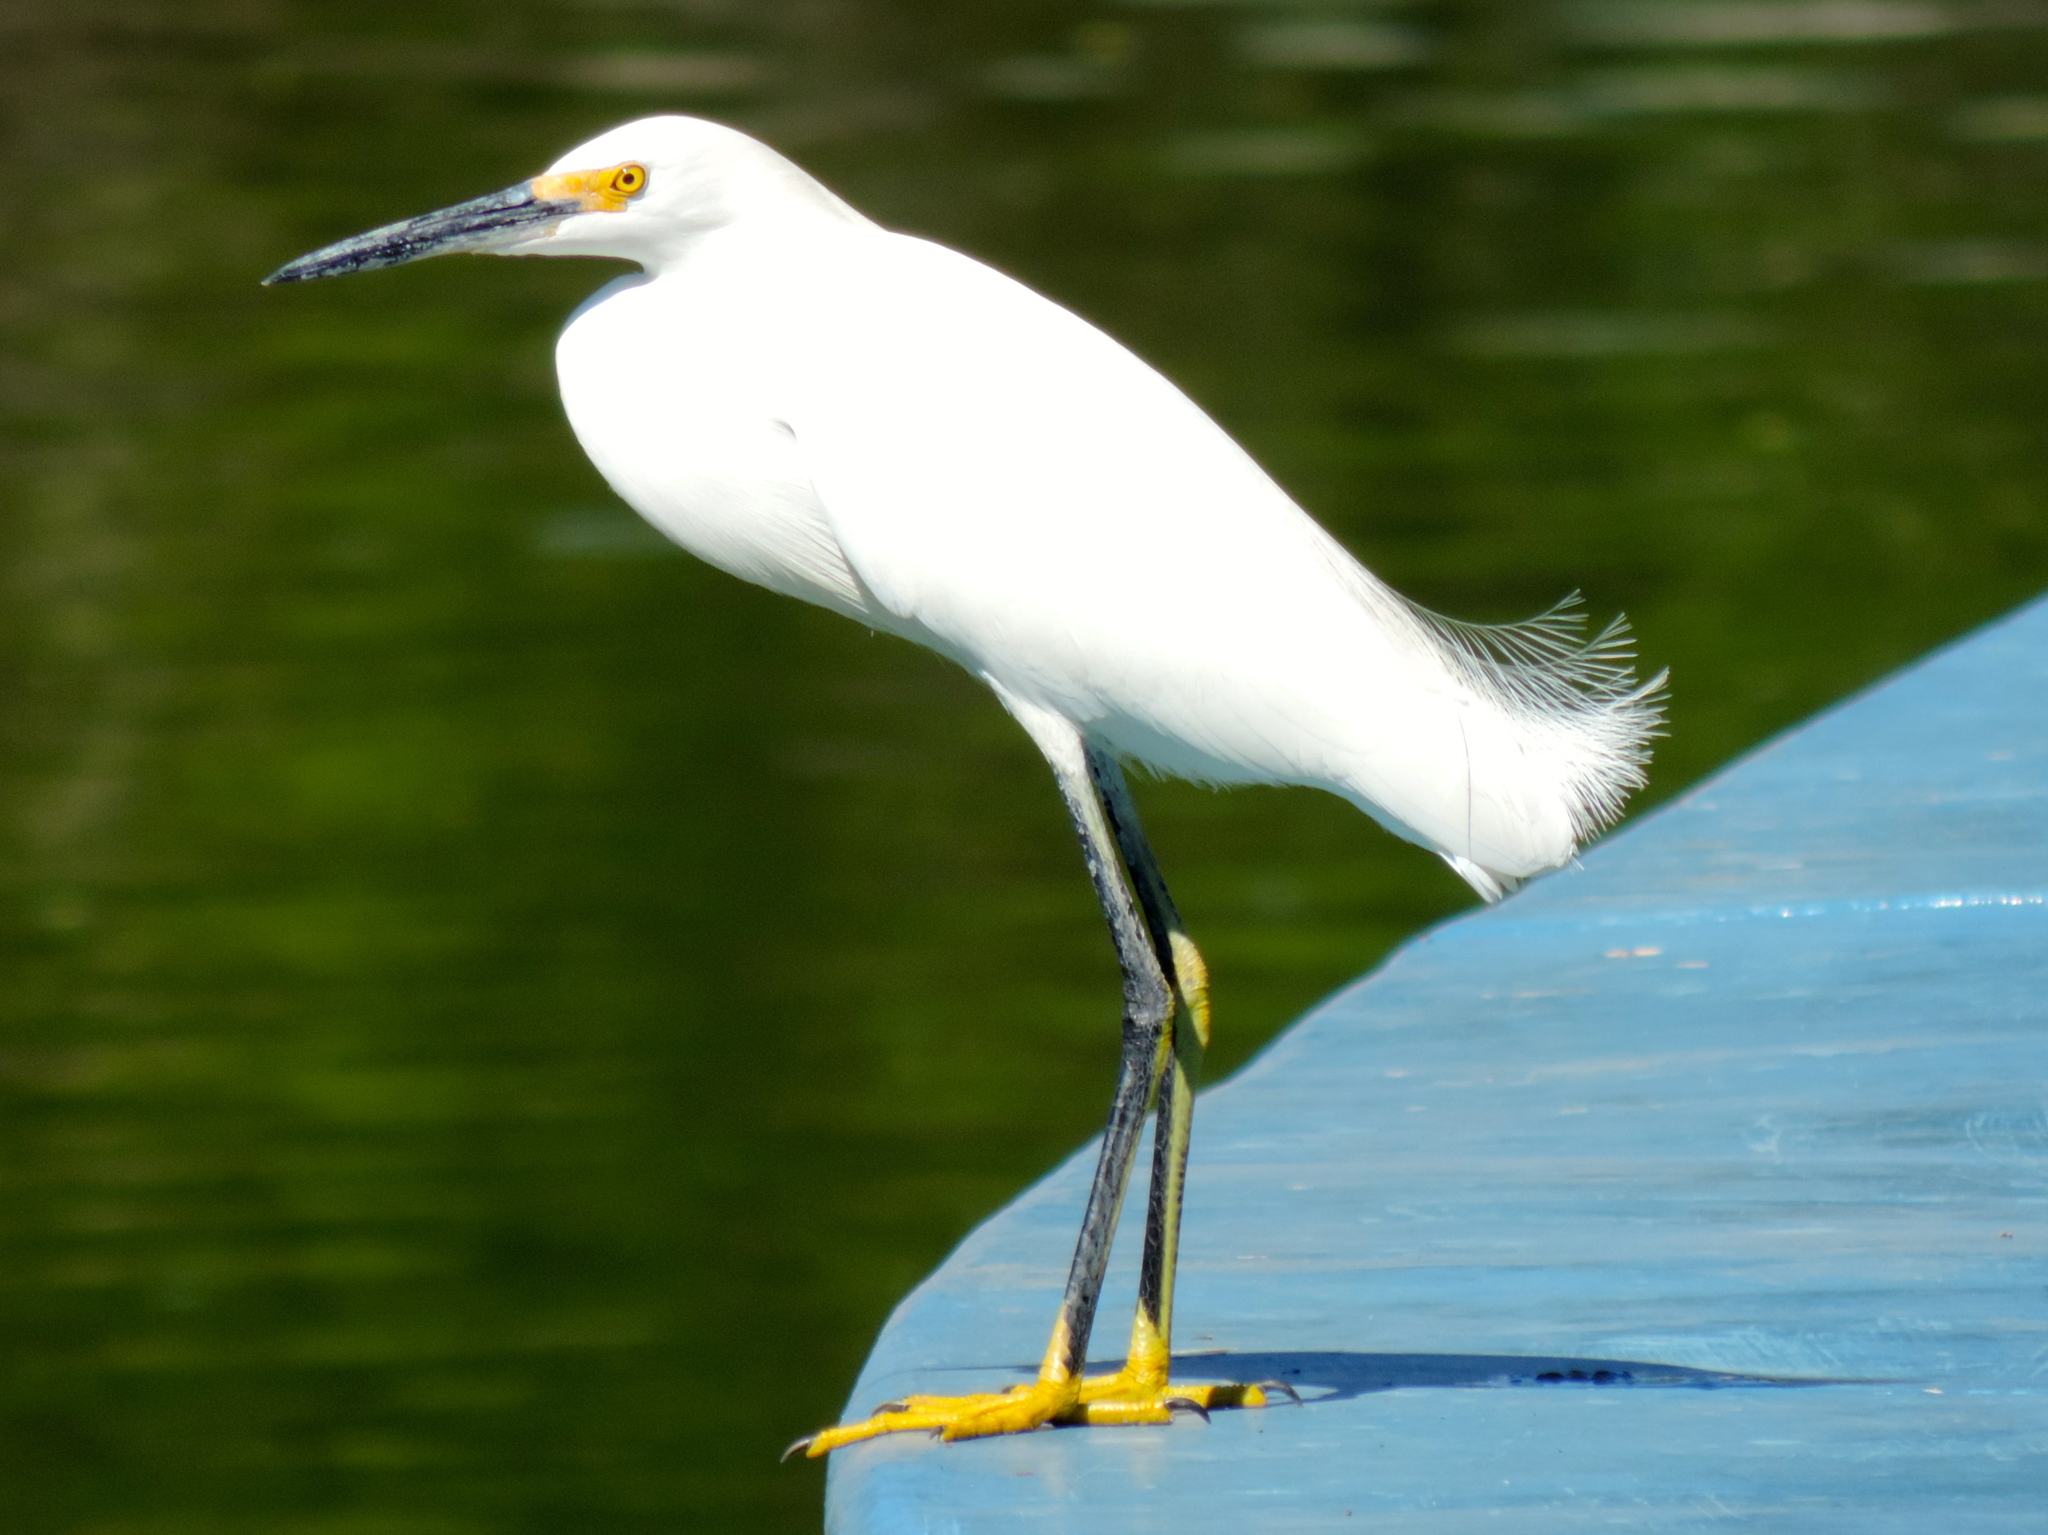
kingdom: Animalia
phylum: Chordata
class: Aves
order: Pelecaniformes
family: Ardeidae
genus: Egretta
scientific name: Egretta thula
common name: Snowy egret
